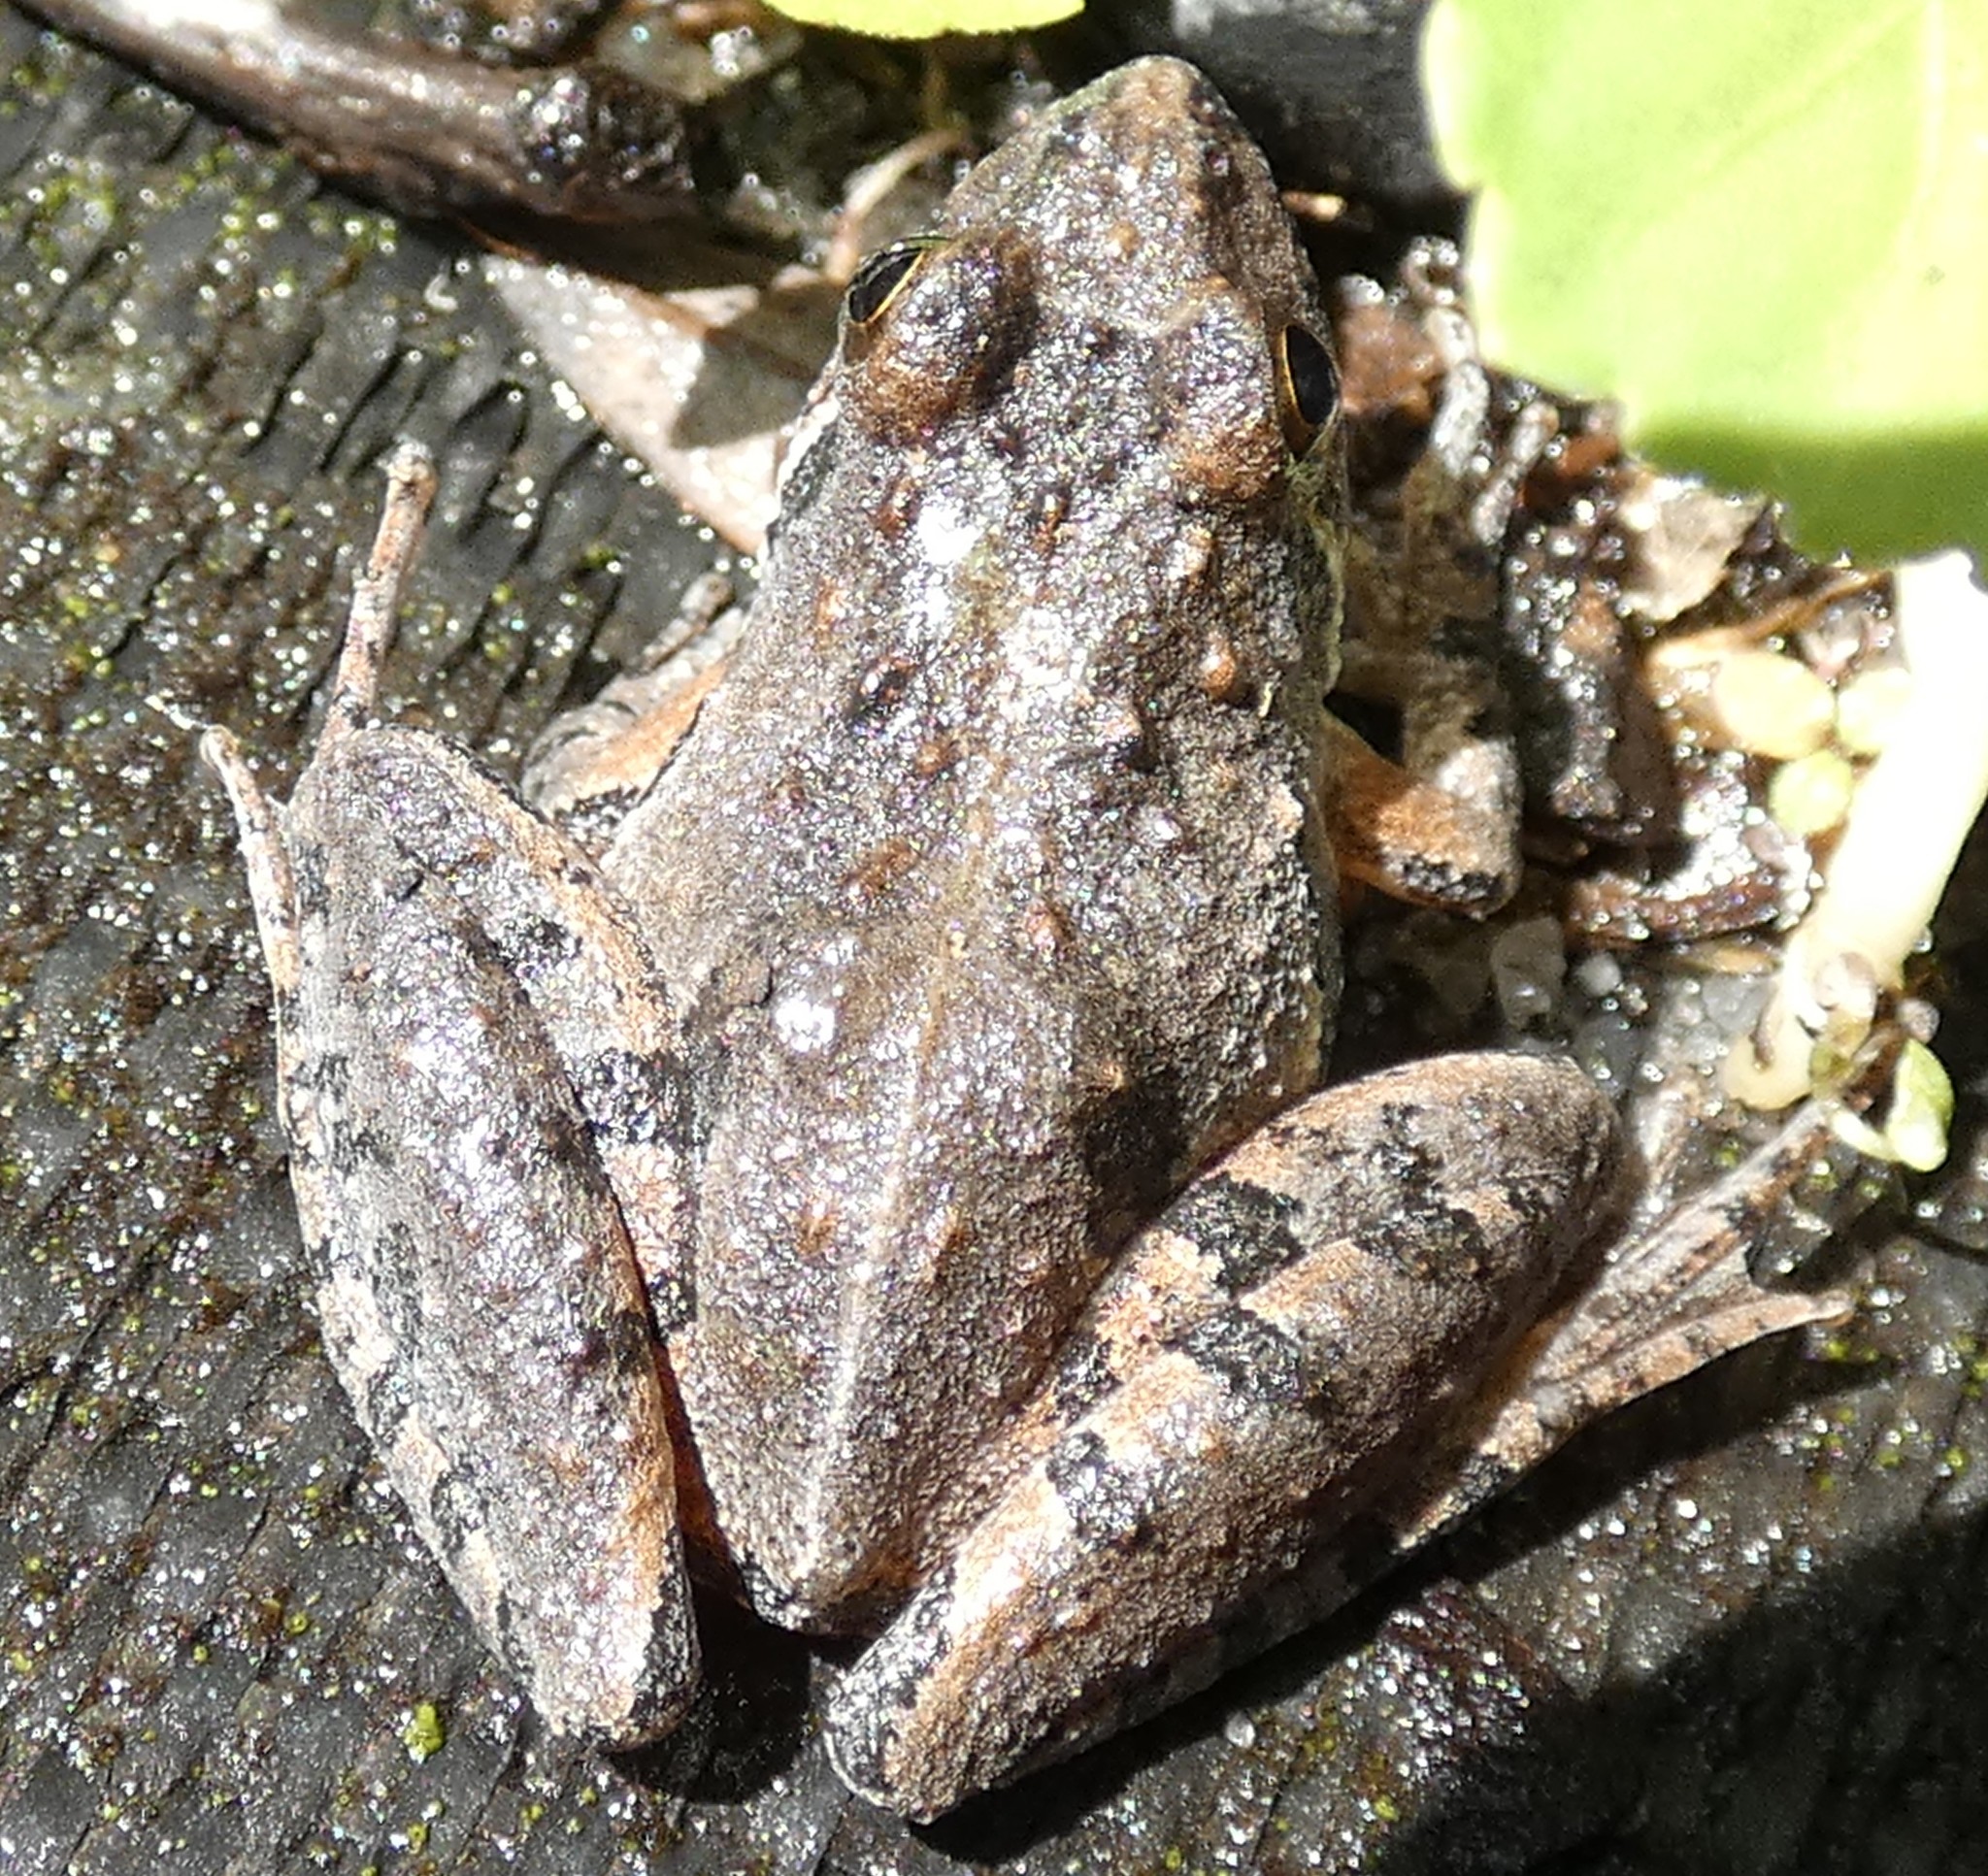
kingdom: Animalia
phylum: Chordata
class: Amphibia
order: Anura
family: Hylidae
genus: Acris
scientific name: Acris gryllus
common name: Southern cricket frog
